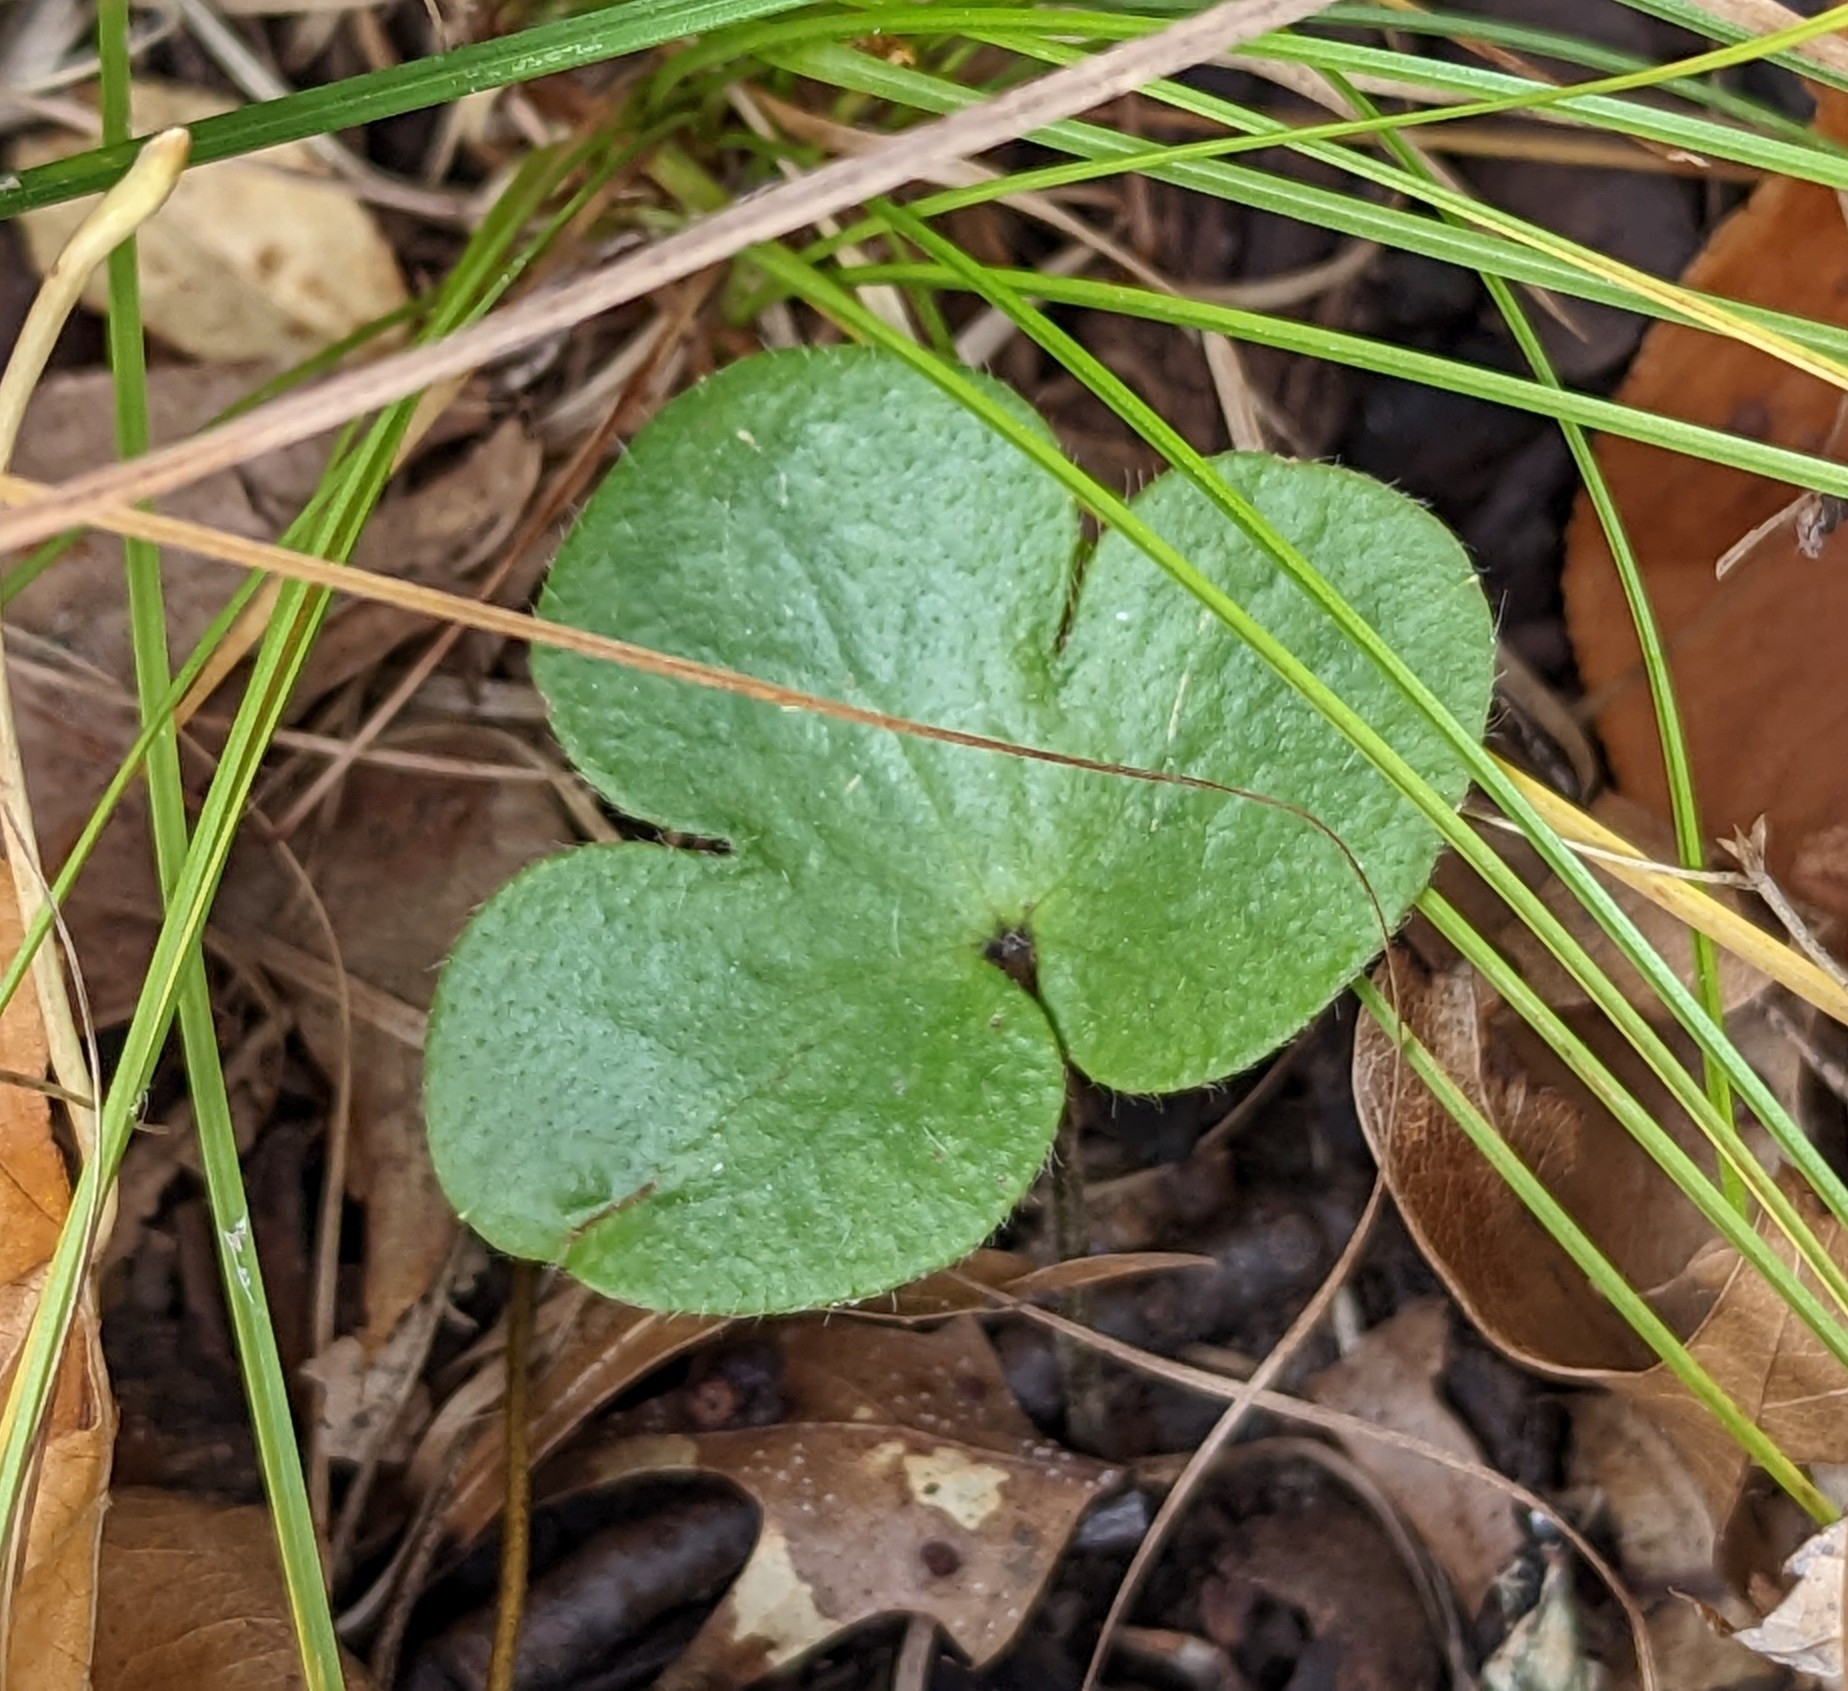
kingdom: Plantae
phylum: Tracheophyta
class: Magnoliopsida
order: Ranunculales
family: Ranunculaceae
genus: Hepatica
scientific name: Hepatica americana
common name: American hepatica
